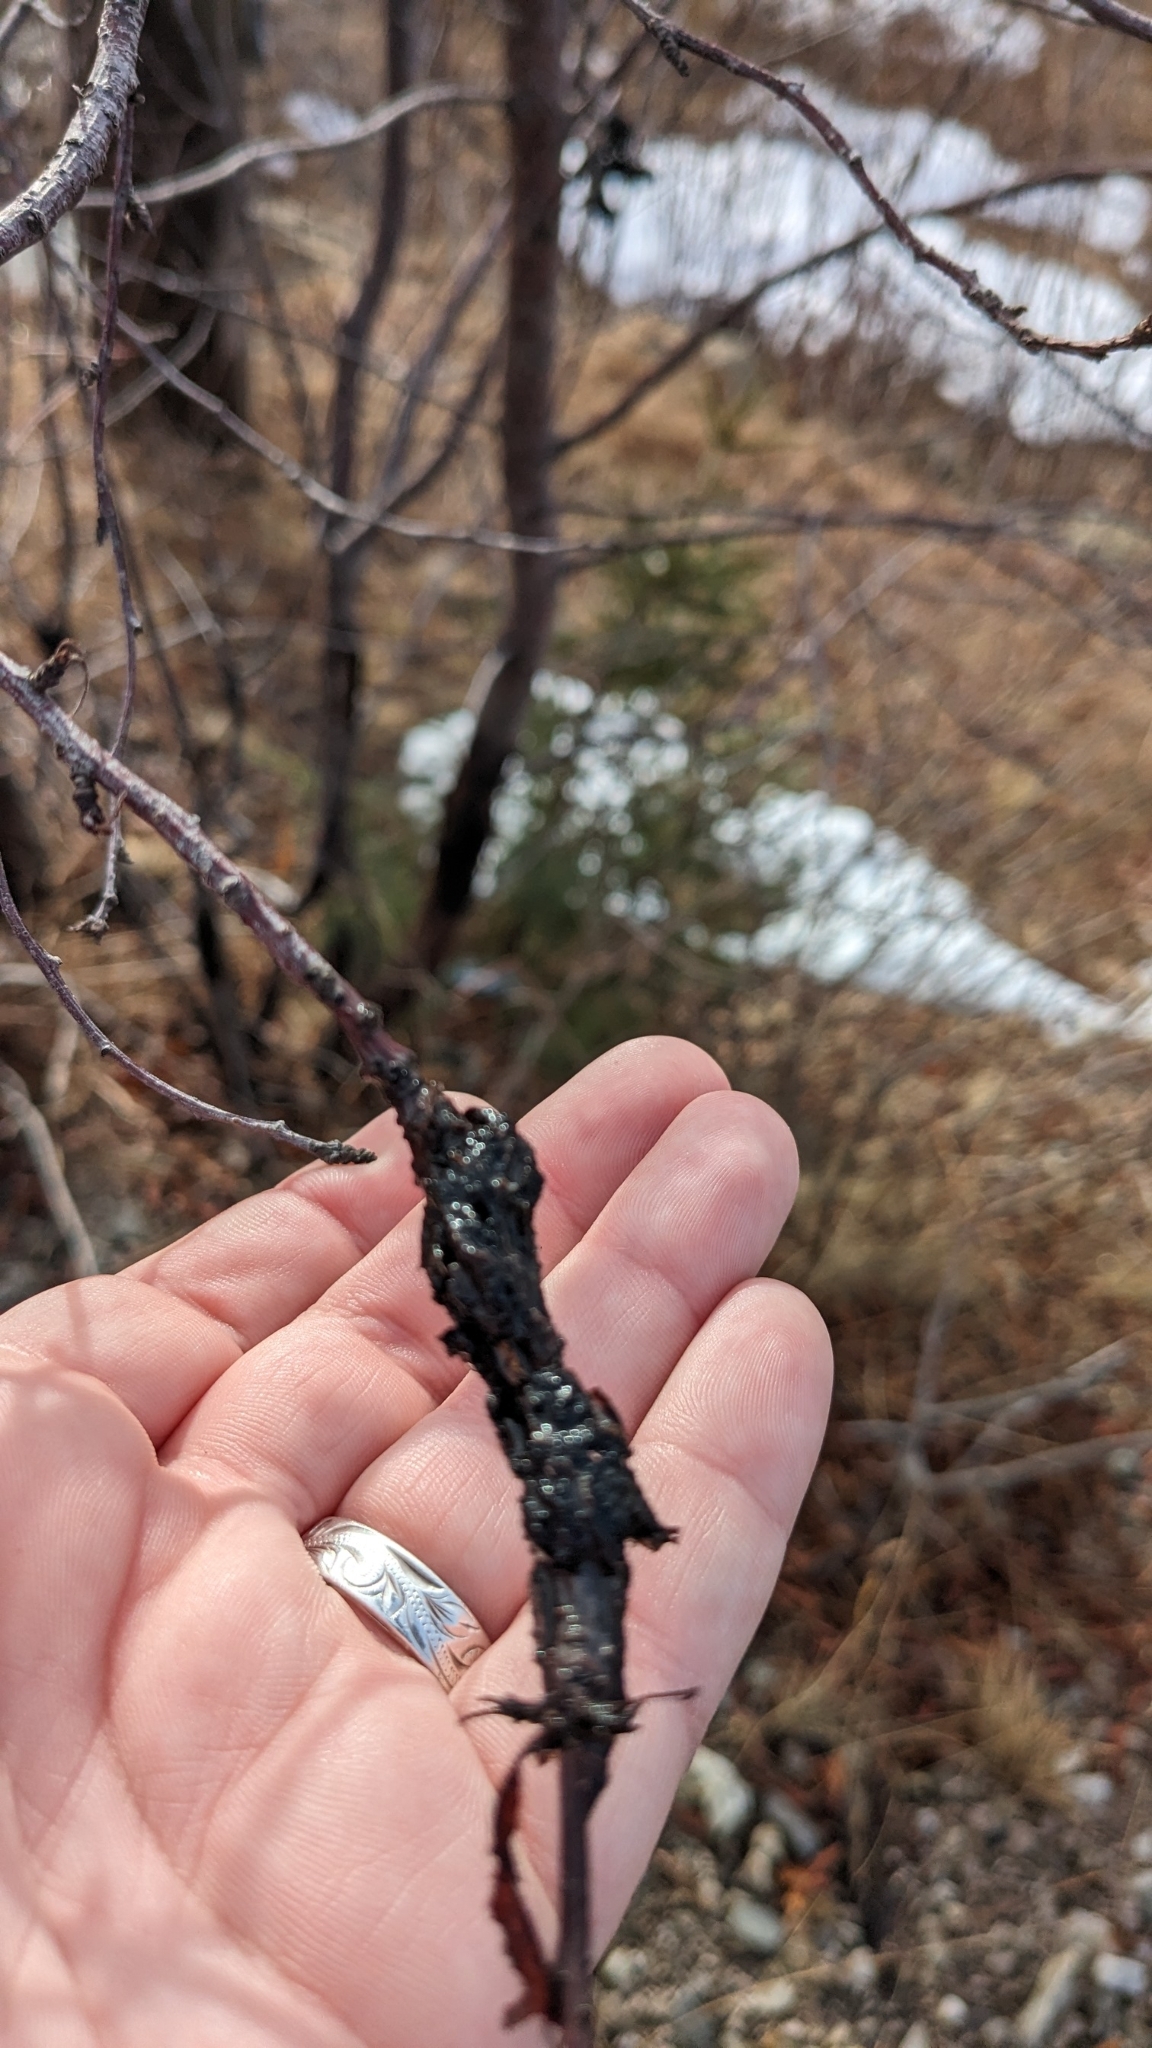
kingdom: Fungi
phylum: Ascomycota
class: Dothideomycetes
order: Venturiales
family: Venturiaceae
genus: Apiosporina
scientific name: Apiosporina morbosa
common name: Black knot
